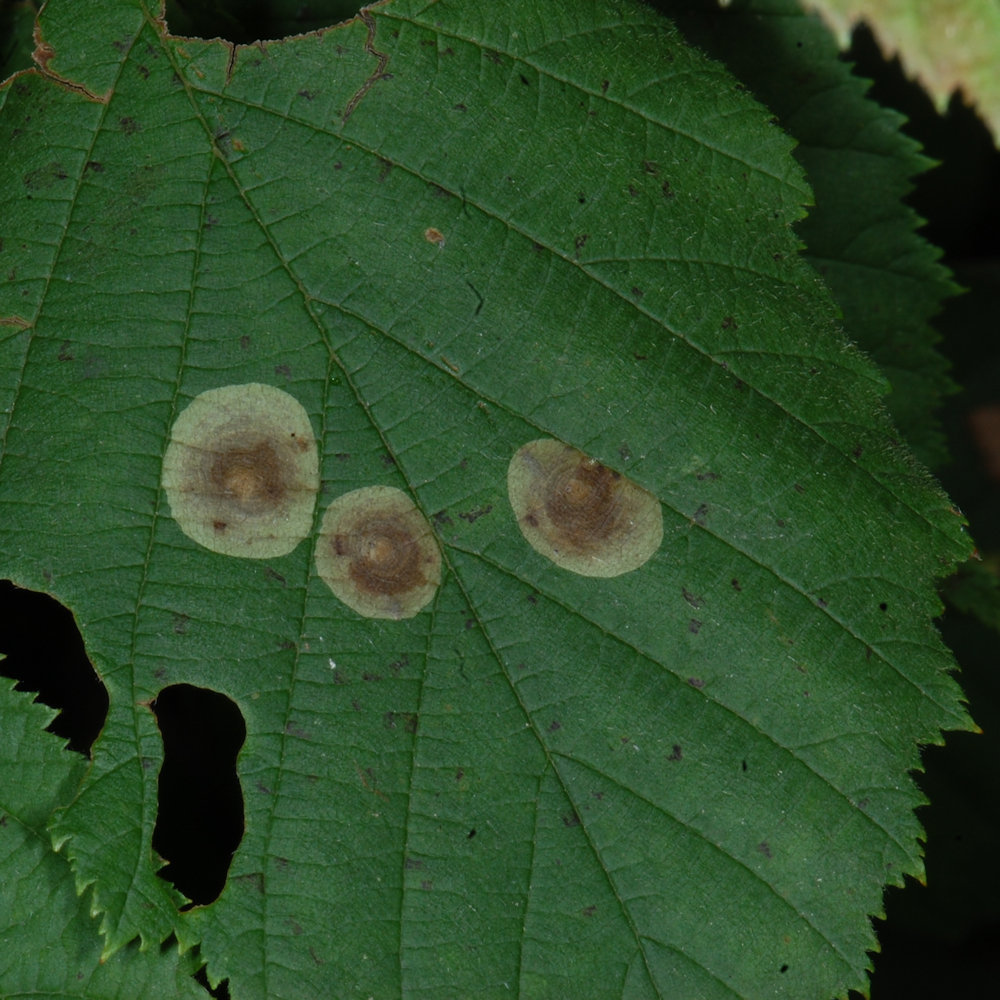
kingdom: Animalia
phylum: Arthropoda
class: Insecta
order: Lepidoptera
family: Gracillariidae
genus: Cameraria
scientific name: Cameraria corylisella
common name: Hazel blotchminer
